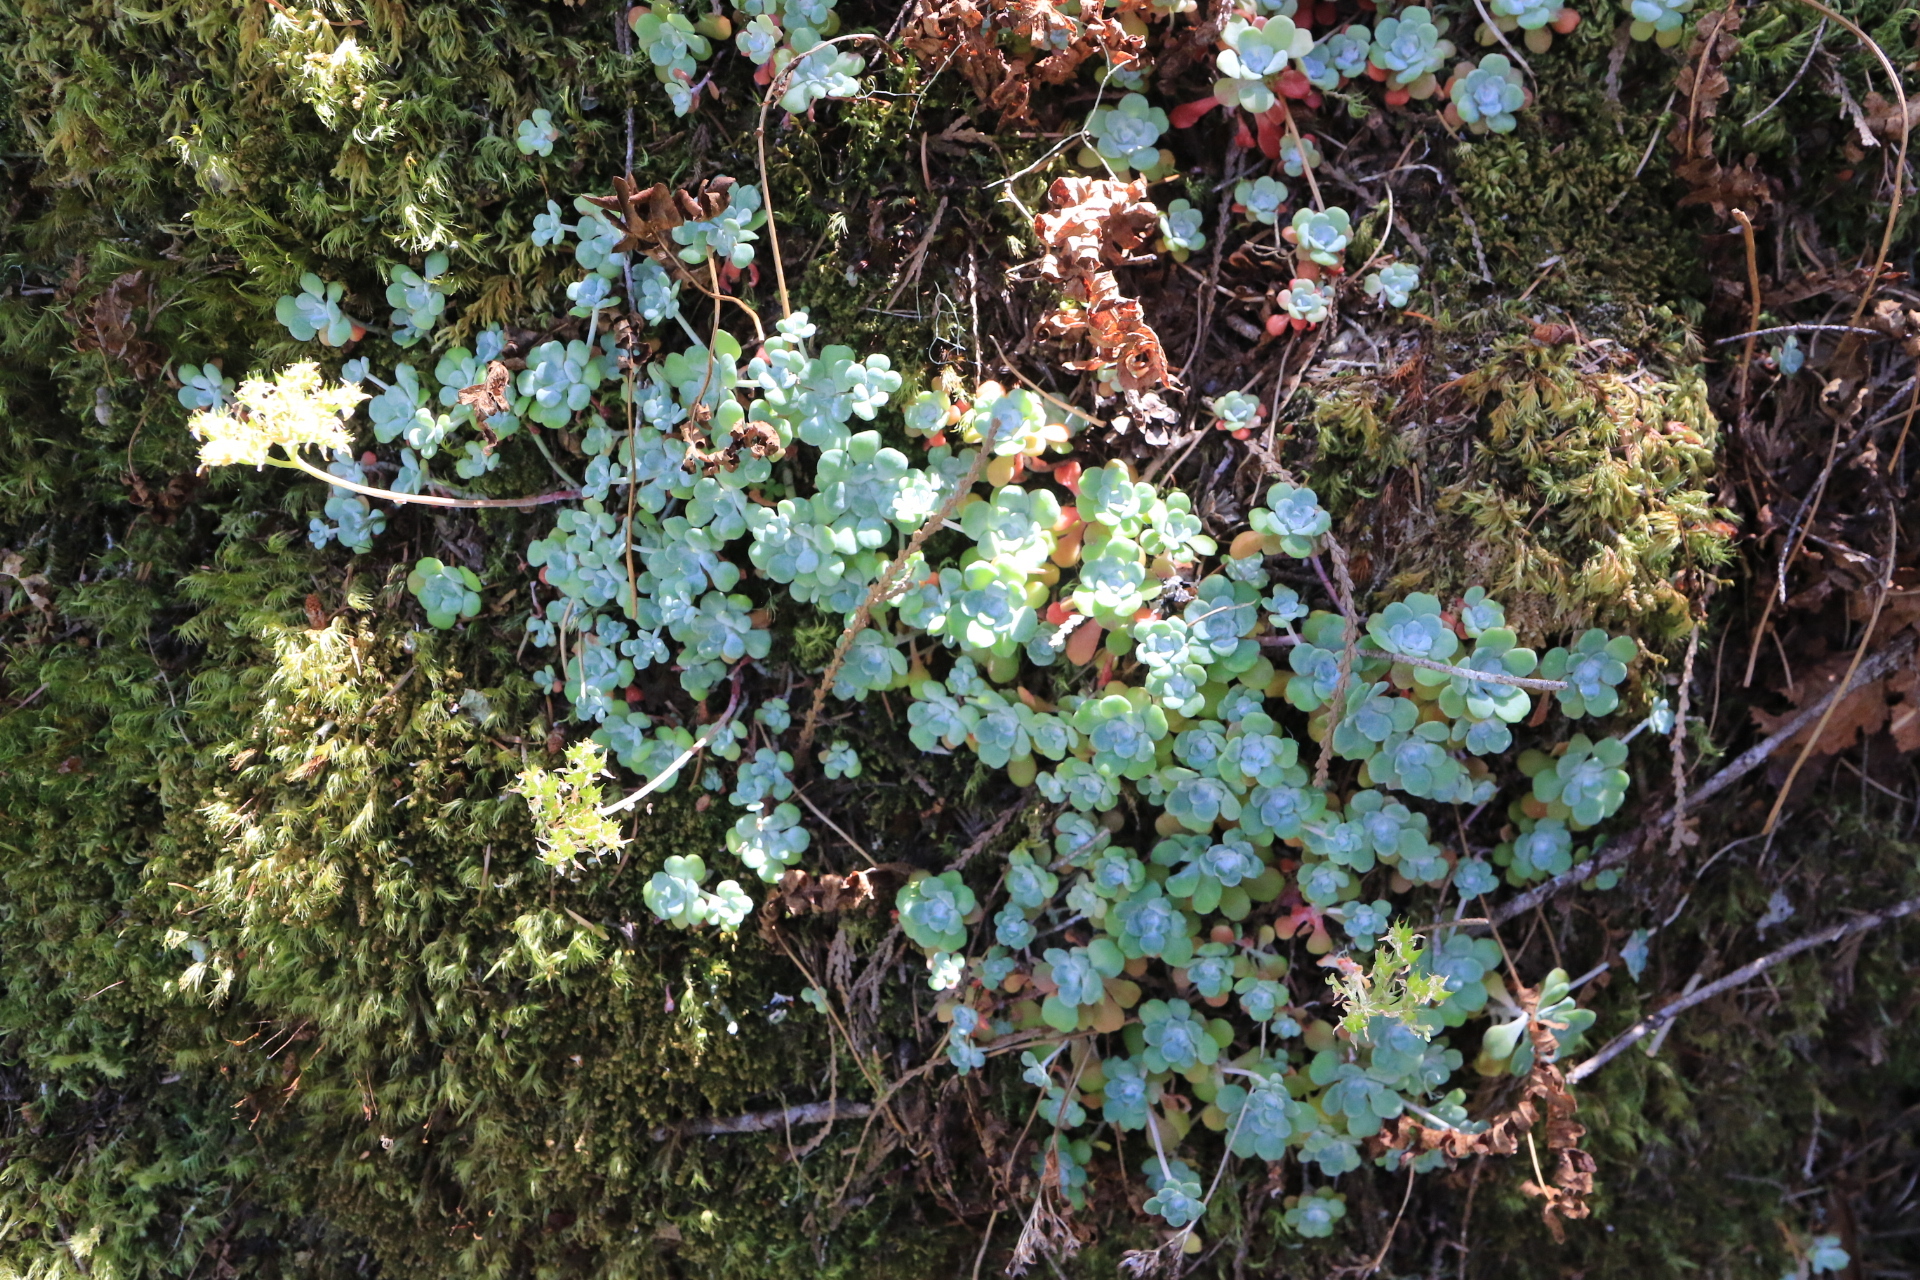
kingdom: Plantae
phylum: Tracheophyta
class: Magnoliopsida
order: Saxifragales
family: Crassulaceae
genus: Sedum
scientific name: Sedum spathulifolium
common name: Colorado stonecrop
